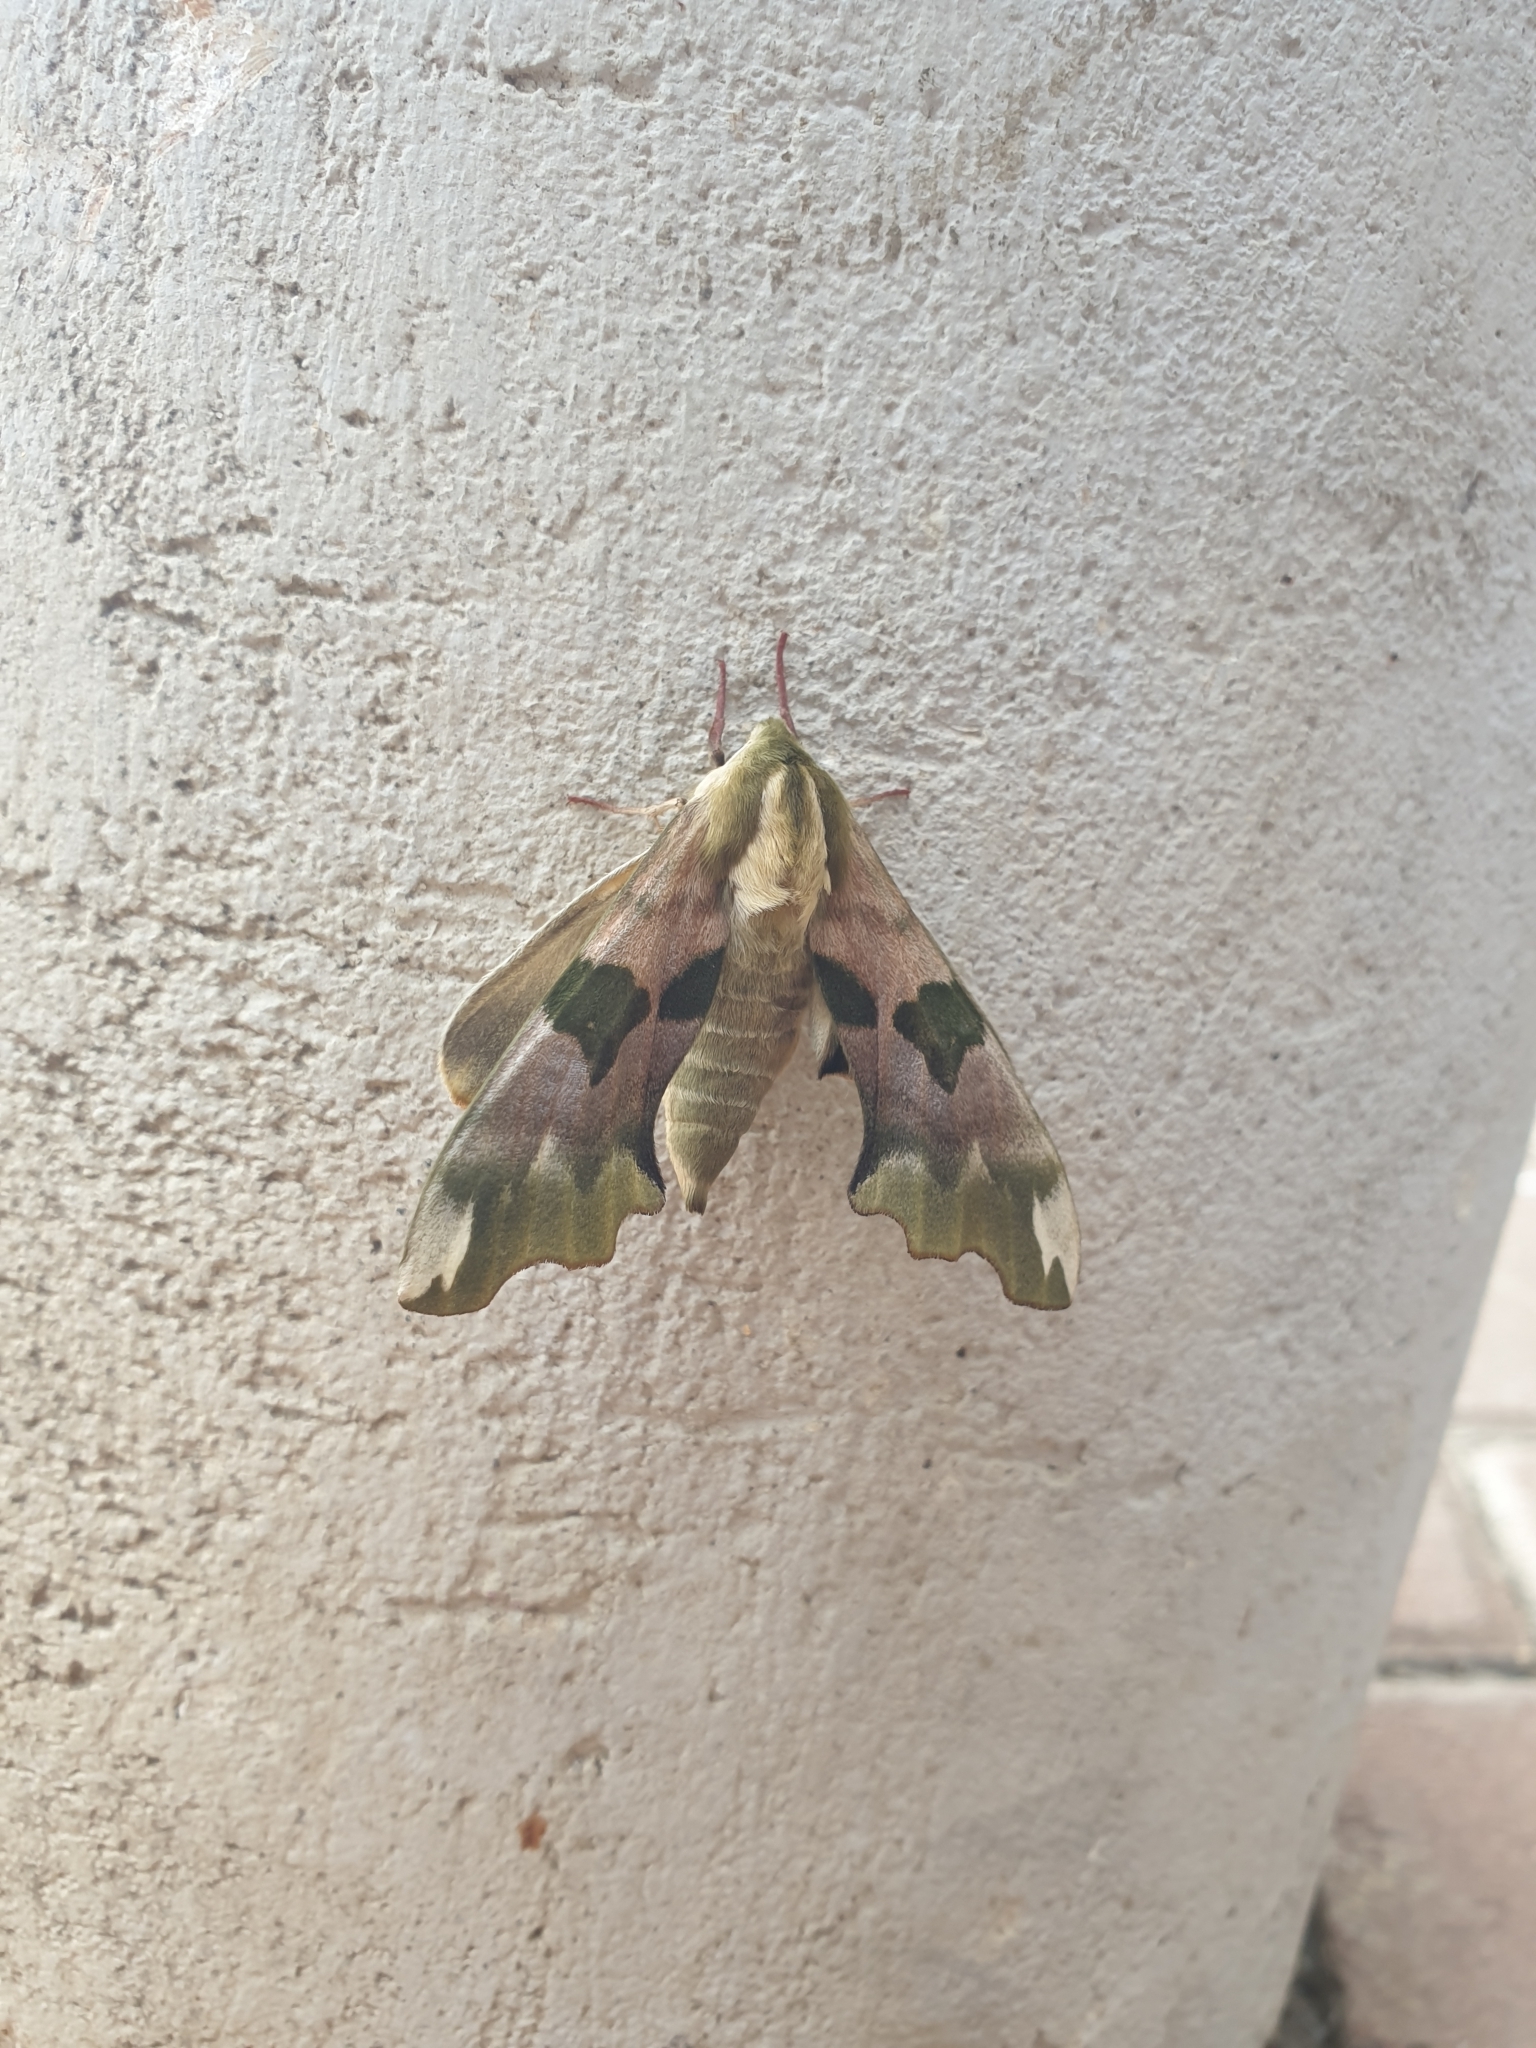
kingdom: Animalia
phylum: Arthropoda
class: Insecta
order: Lepidoptera
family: Sphingidae
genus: Mimas
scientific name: Mimas tiliae
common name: Lime hawk-moth
